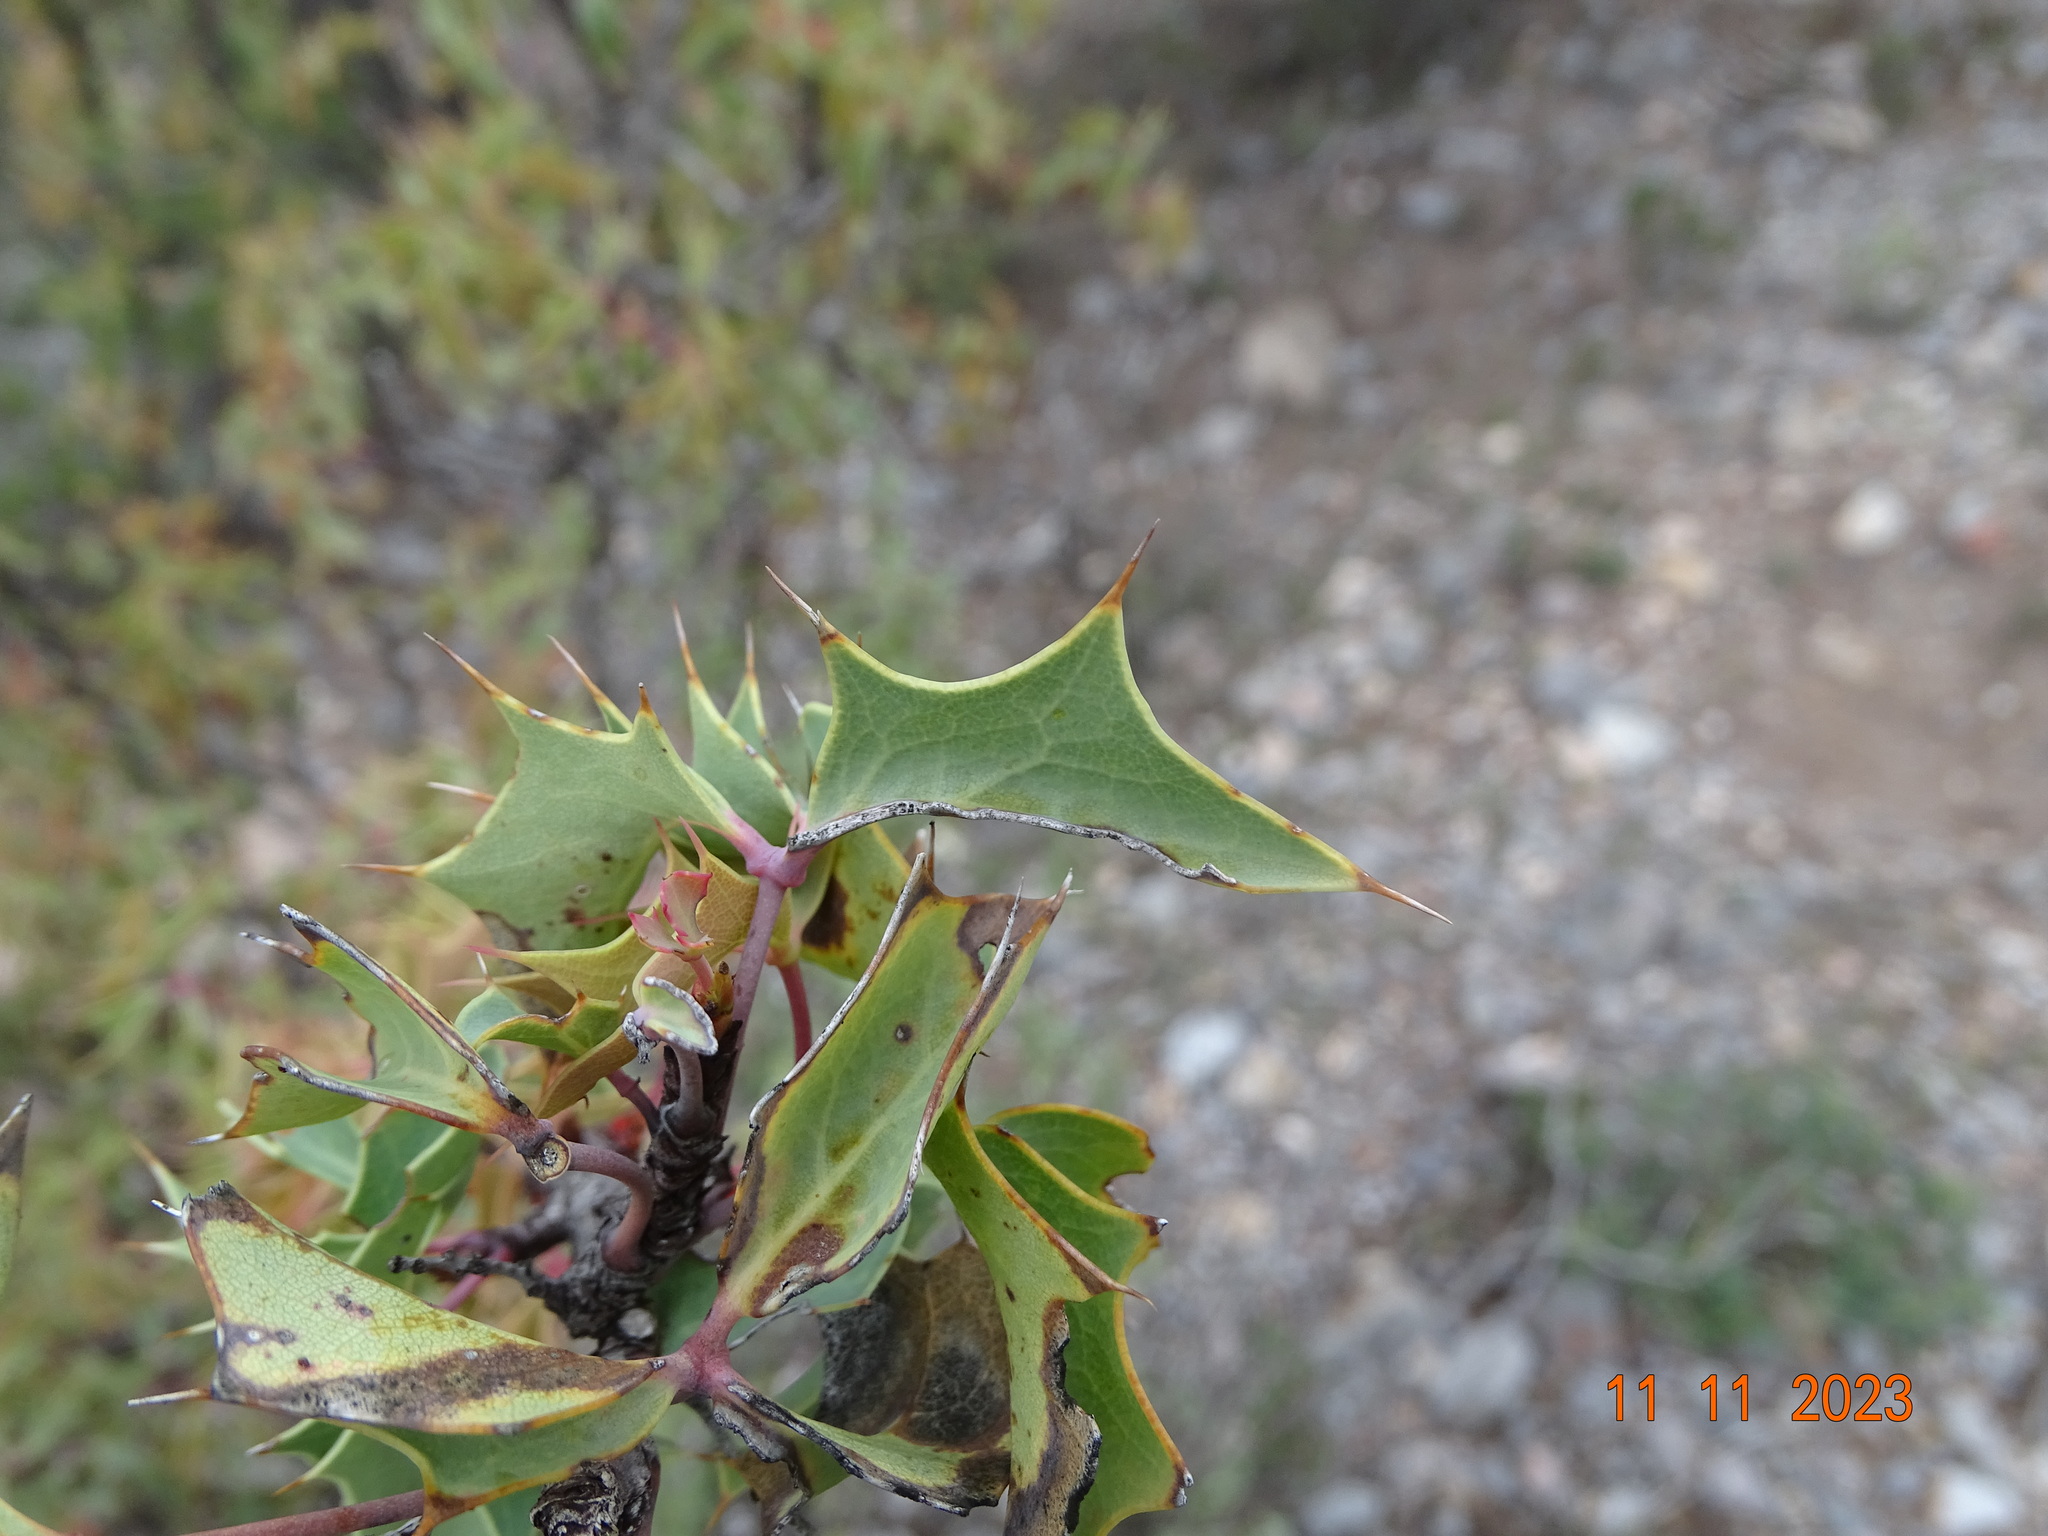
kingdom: Plantae
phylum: Tracheophyta
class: Magnoliopsida
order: Ranunculales
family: Berberidaceae
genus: Alloberberis
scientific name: Alloberberis trifoliolata
